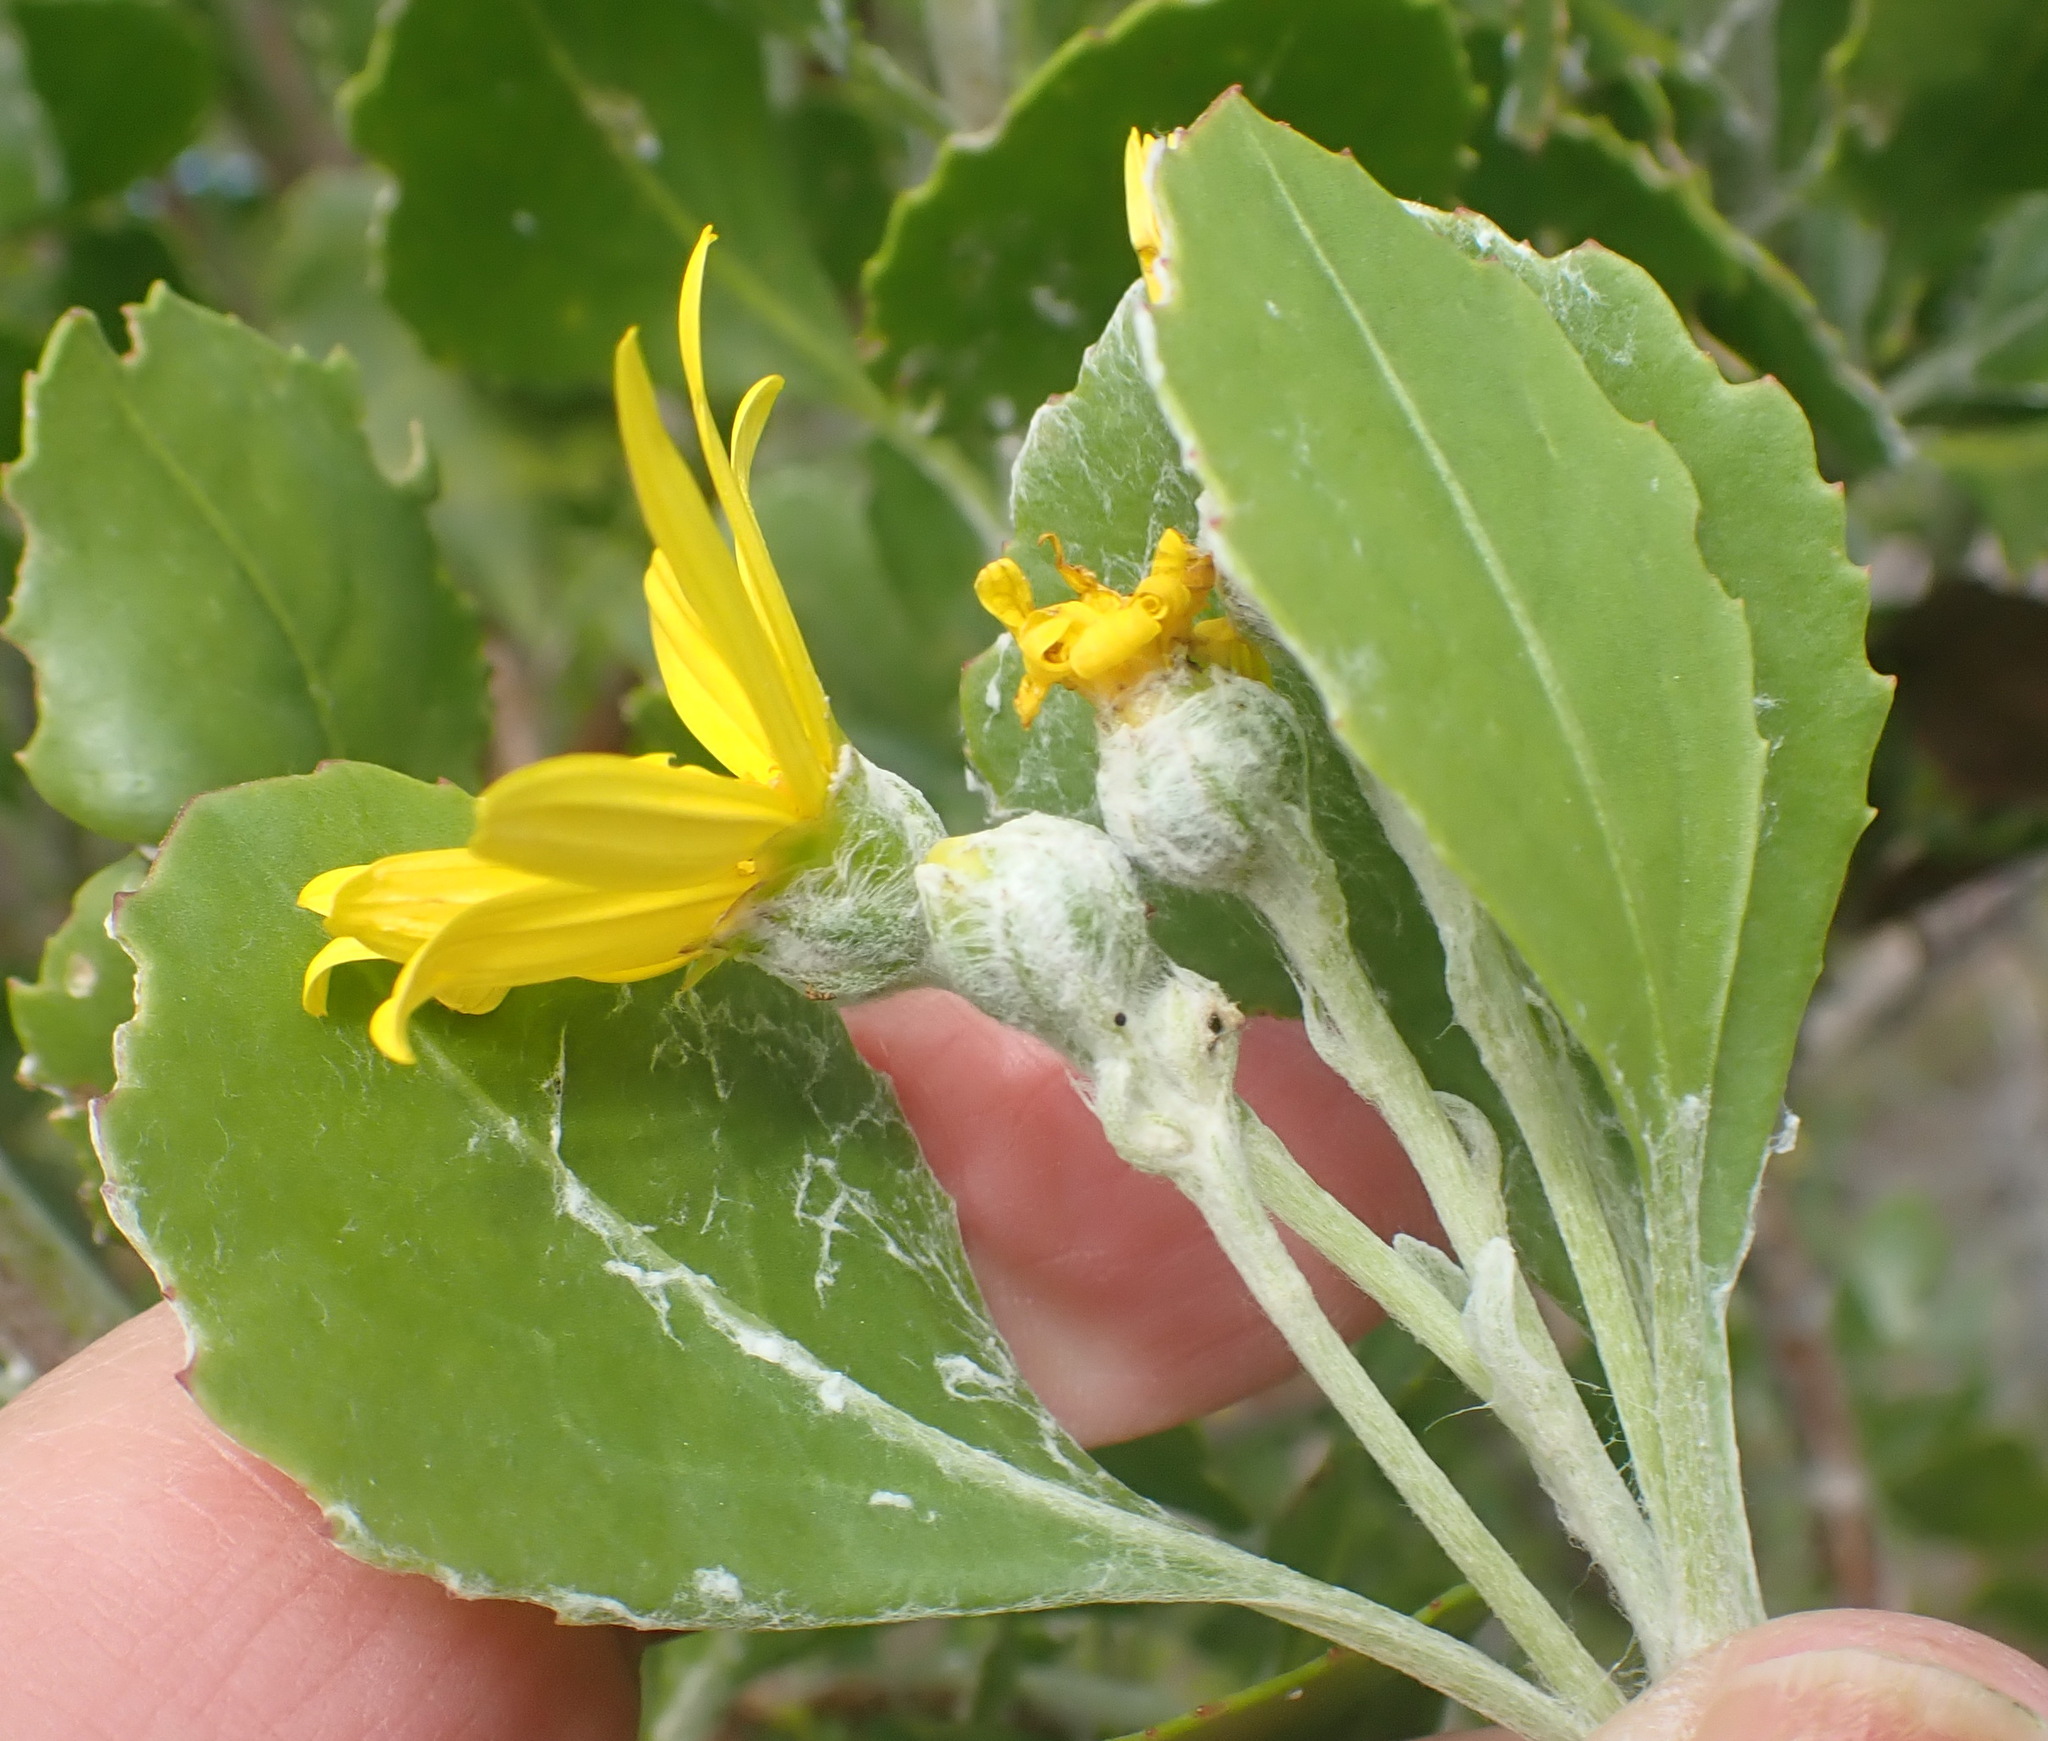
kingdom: Plantae
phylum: Tracheophyta
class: Magnoliopsida
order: Asterales
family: Asteraceae
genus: Osteospermum
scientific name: Osteospermum moniliferum
